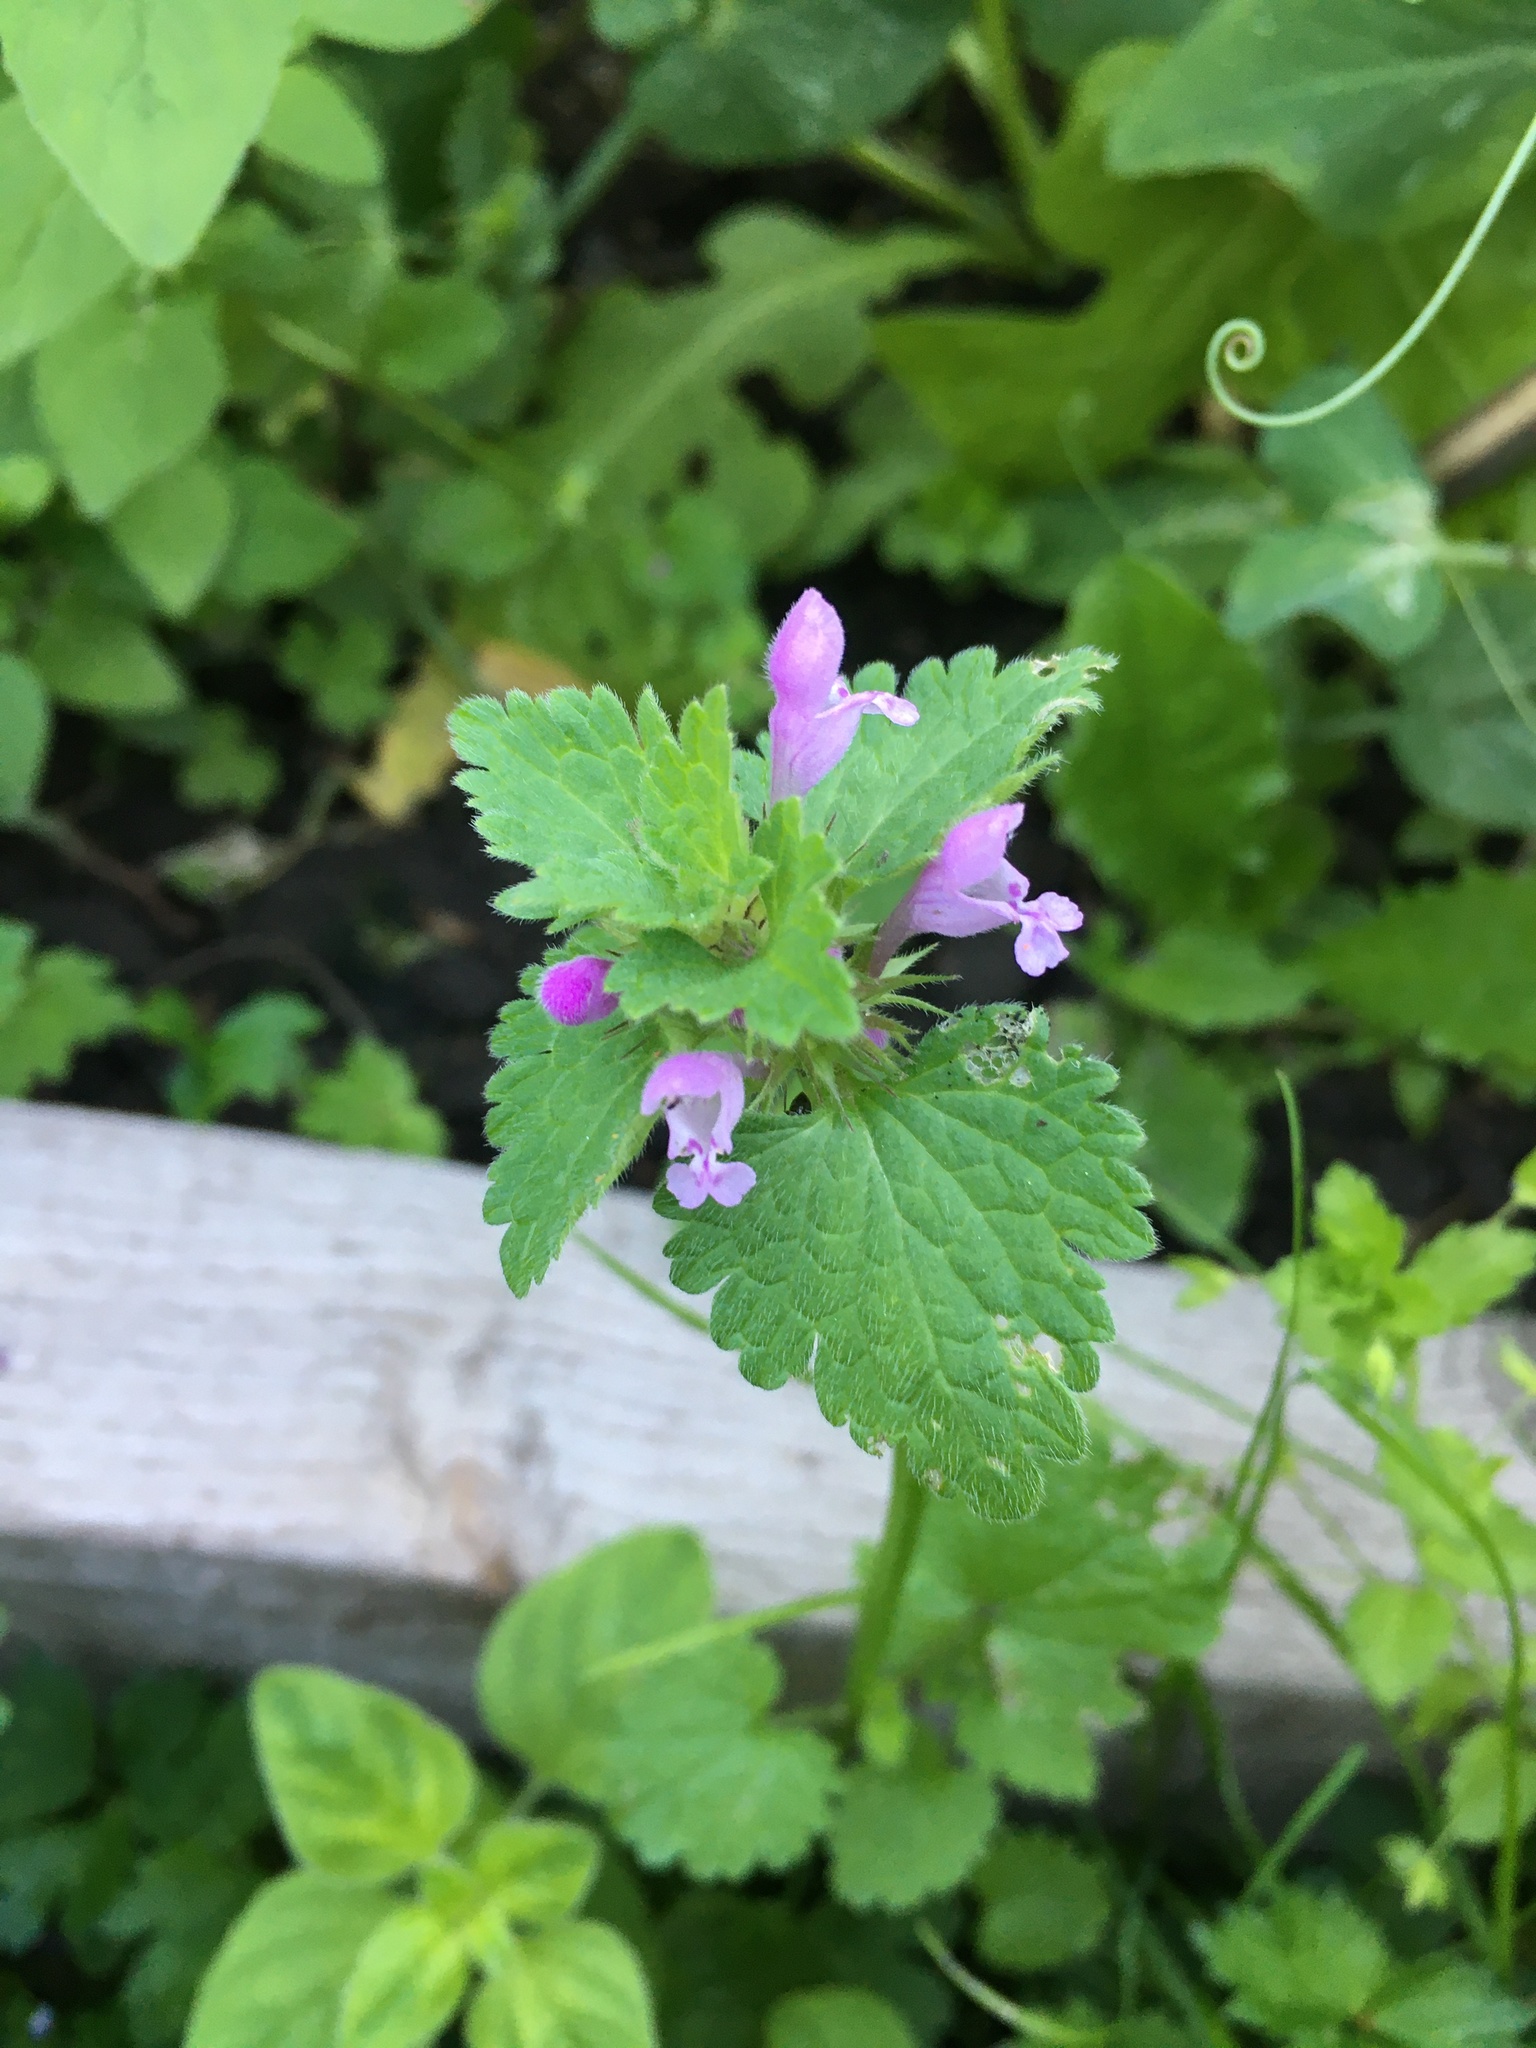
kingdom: Plantae
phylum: Tracheophyta
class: Magnoliopsida
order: Lamiales
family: Lamiaceae
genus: Lamium
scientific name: Lamium hybridum
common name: Cut-leaved dead-nettle
